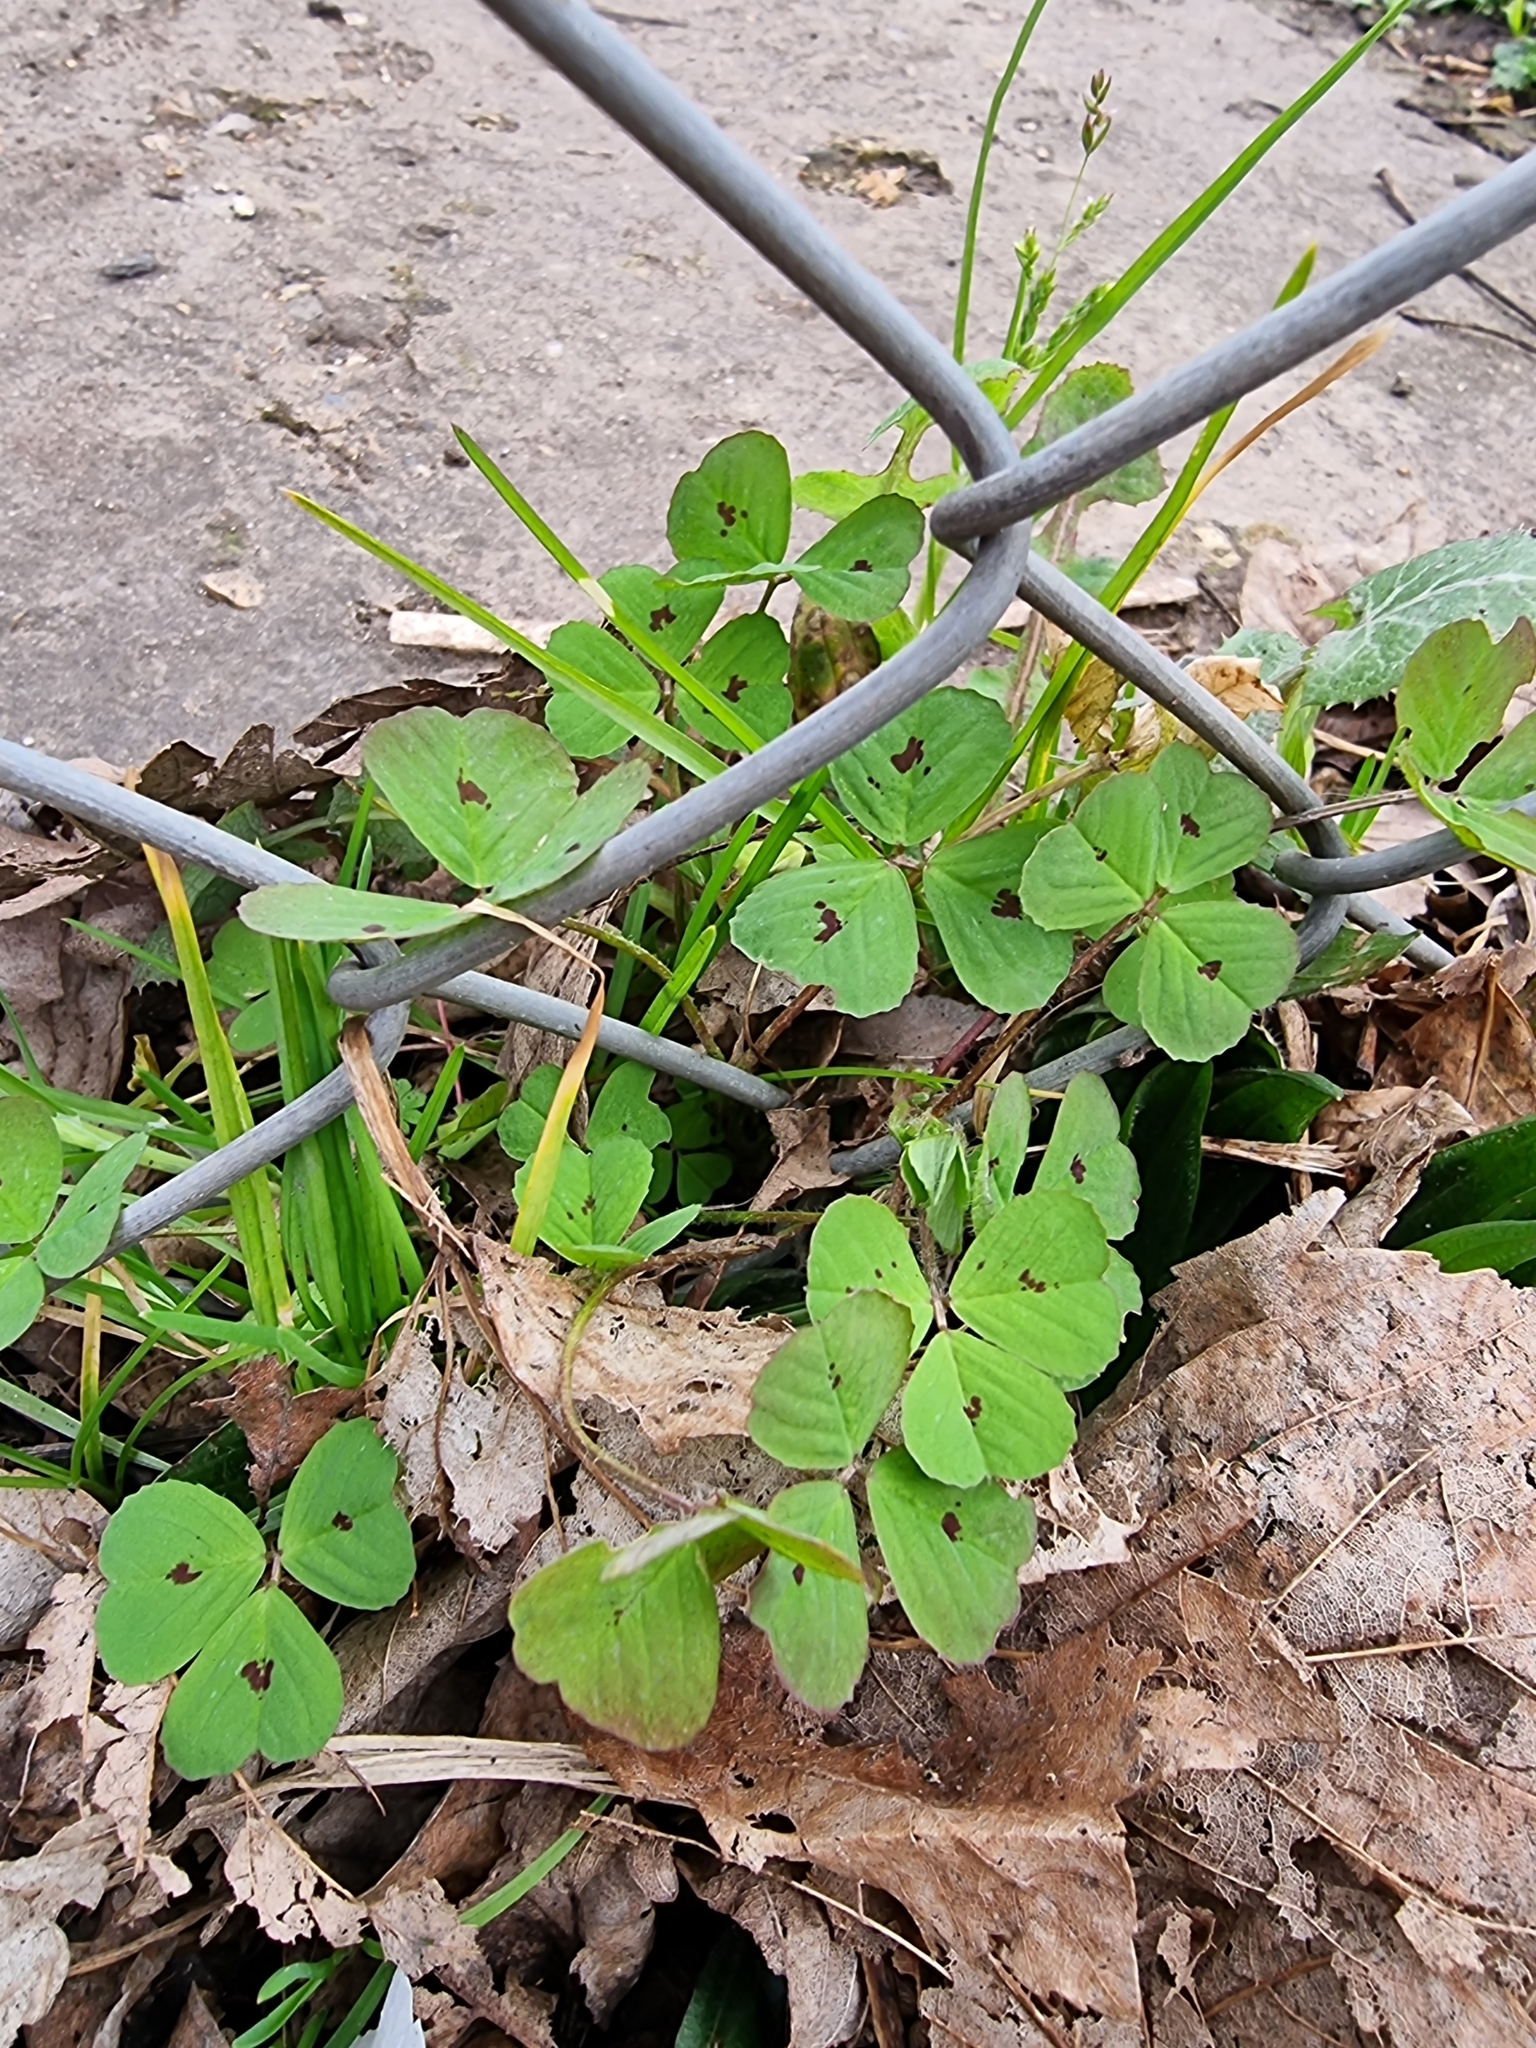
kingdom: Plantae
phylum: Tracheophyta
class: Magnoliopsida
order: Fabales
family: Fabaceae
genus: Medicago
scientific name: Medicago arabica
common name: Spotted medick
